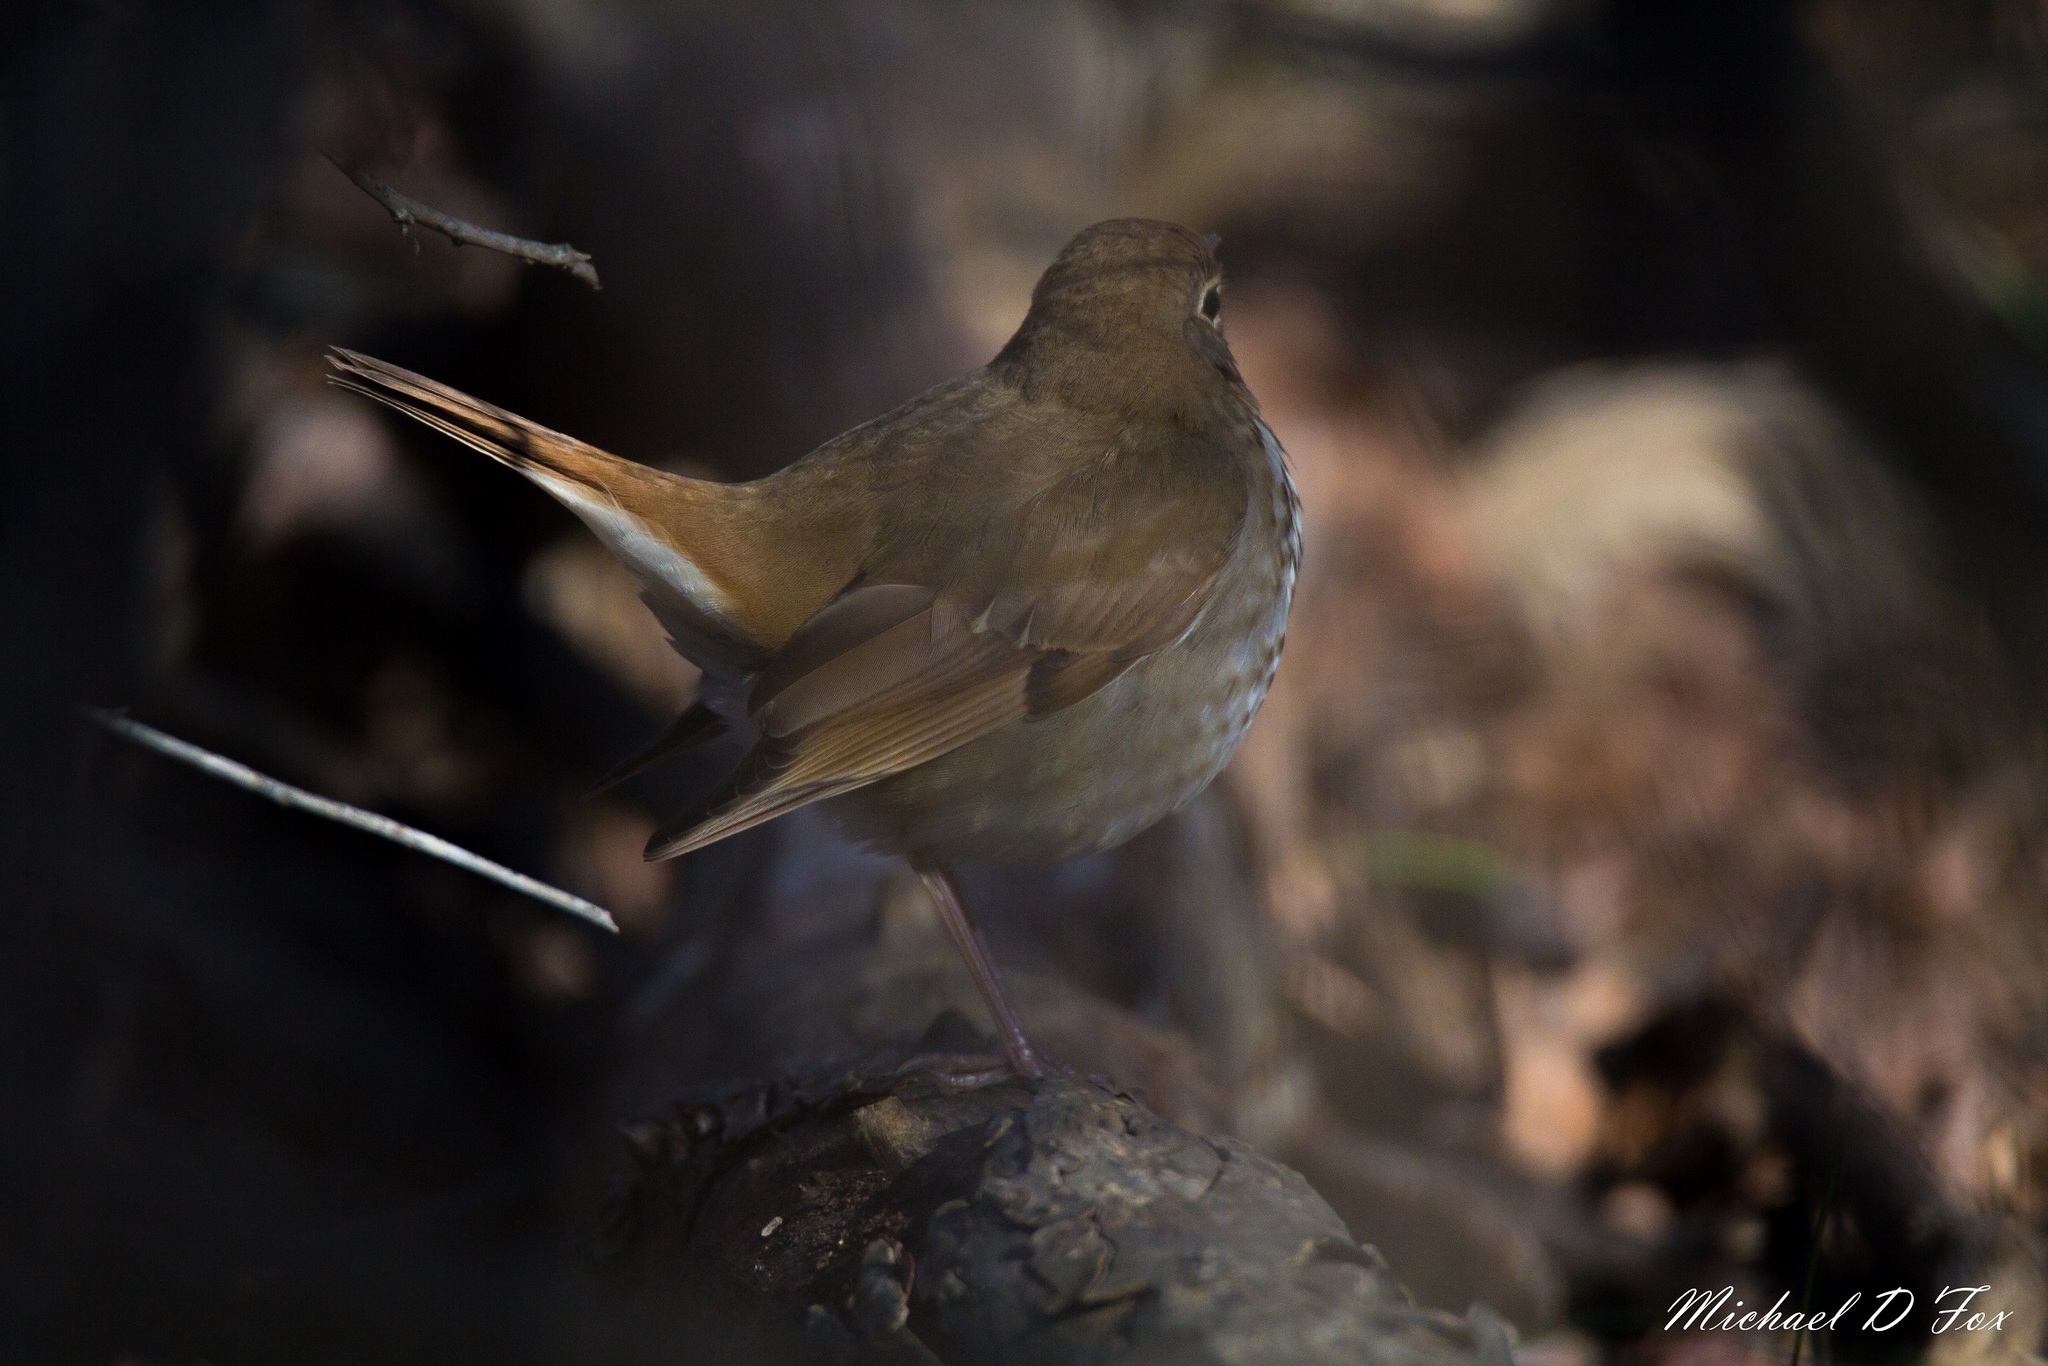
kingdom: Animalia
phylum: Chordata
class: Aves
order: Passeriformes
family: Turdidae
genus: Catharus
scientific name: Catharus guttatus
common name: Hermit thrush
